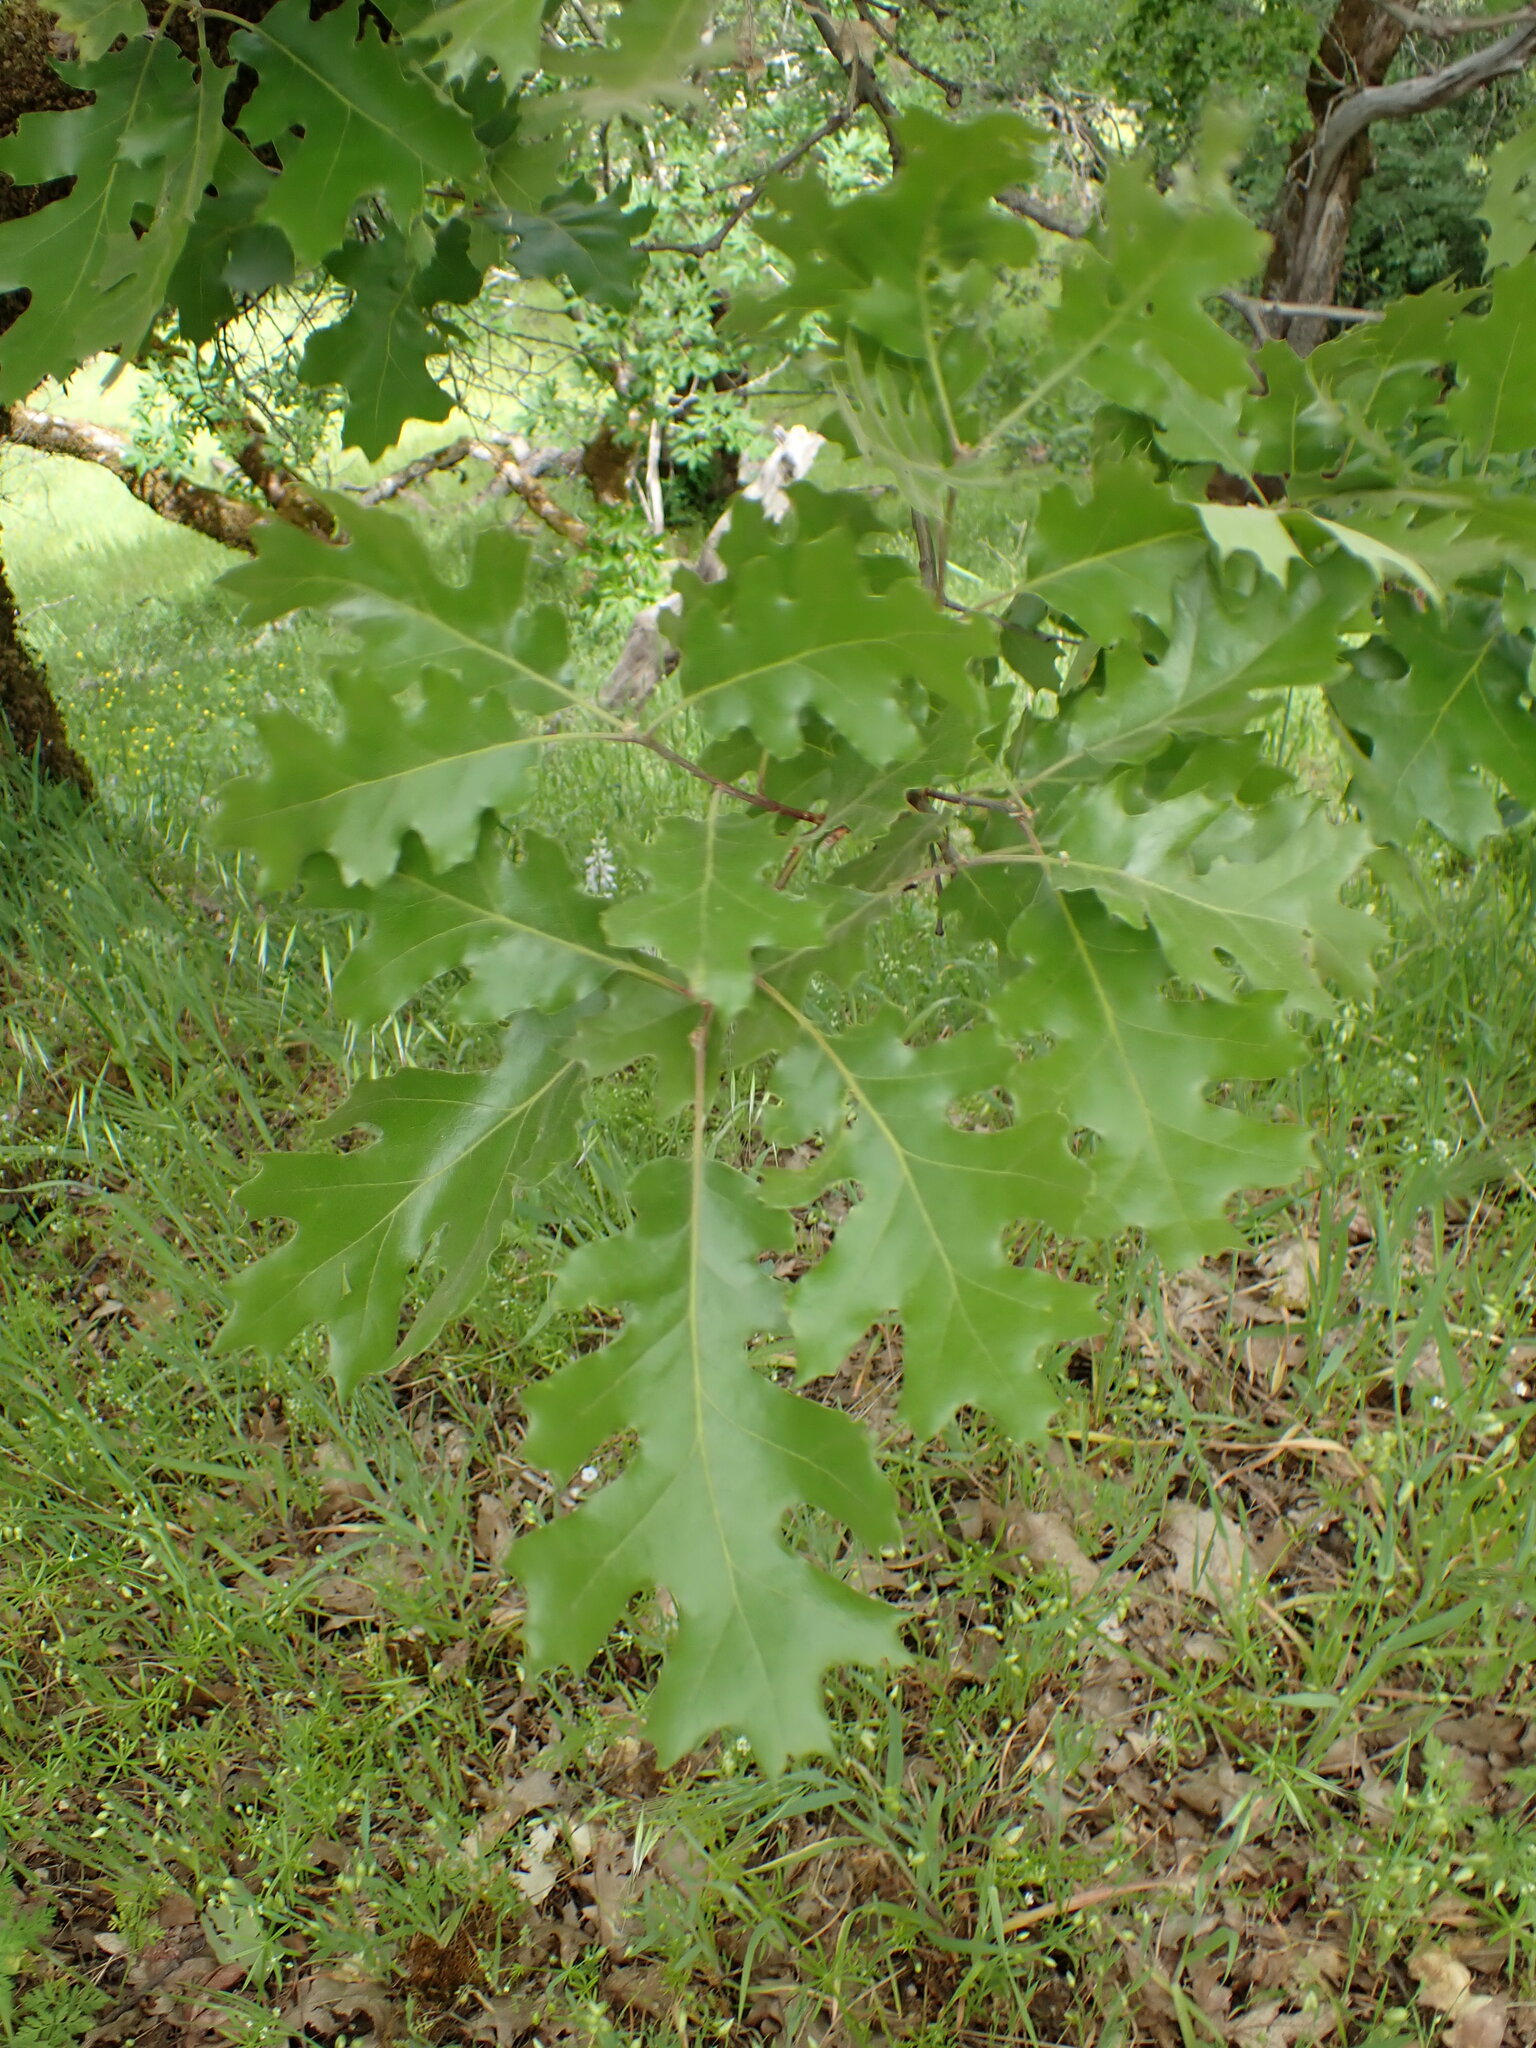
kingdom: Plantae
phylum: Tracheophyta
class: Magnoliopsida
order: Fagales
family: Fagaceae
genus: Quercus
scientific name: Quercus kelloggii
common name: California black oak
